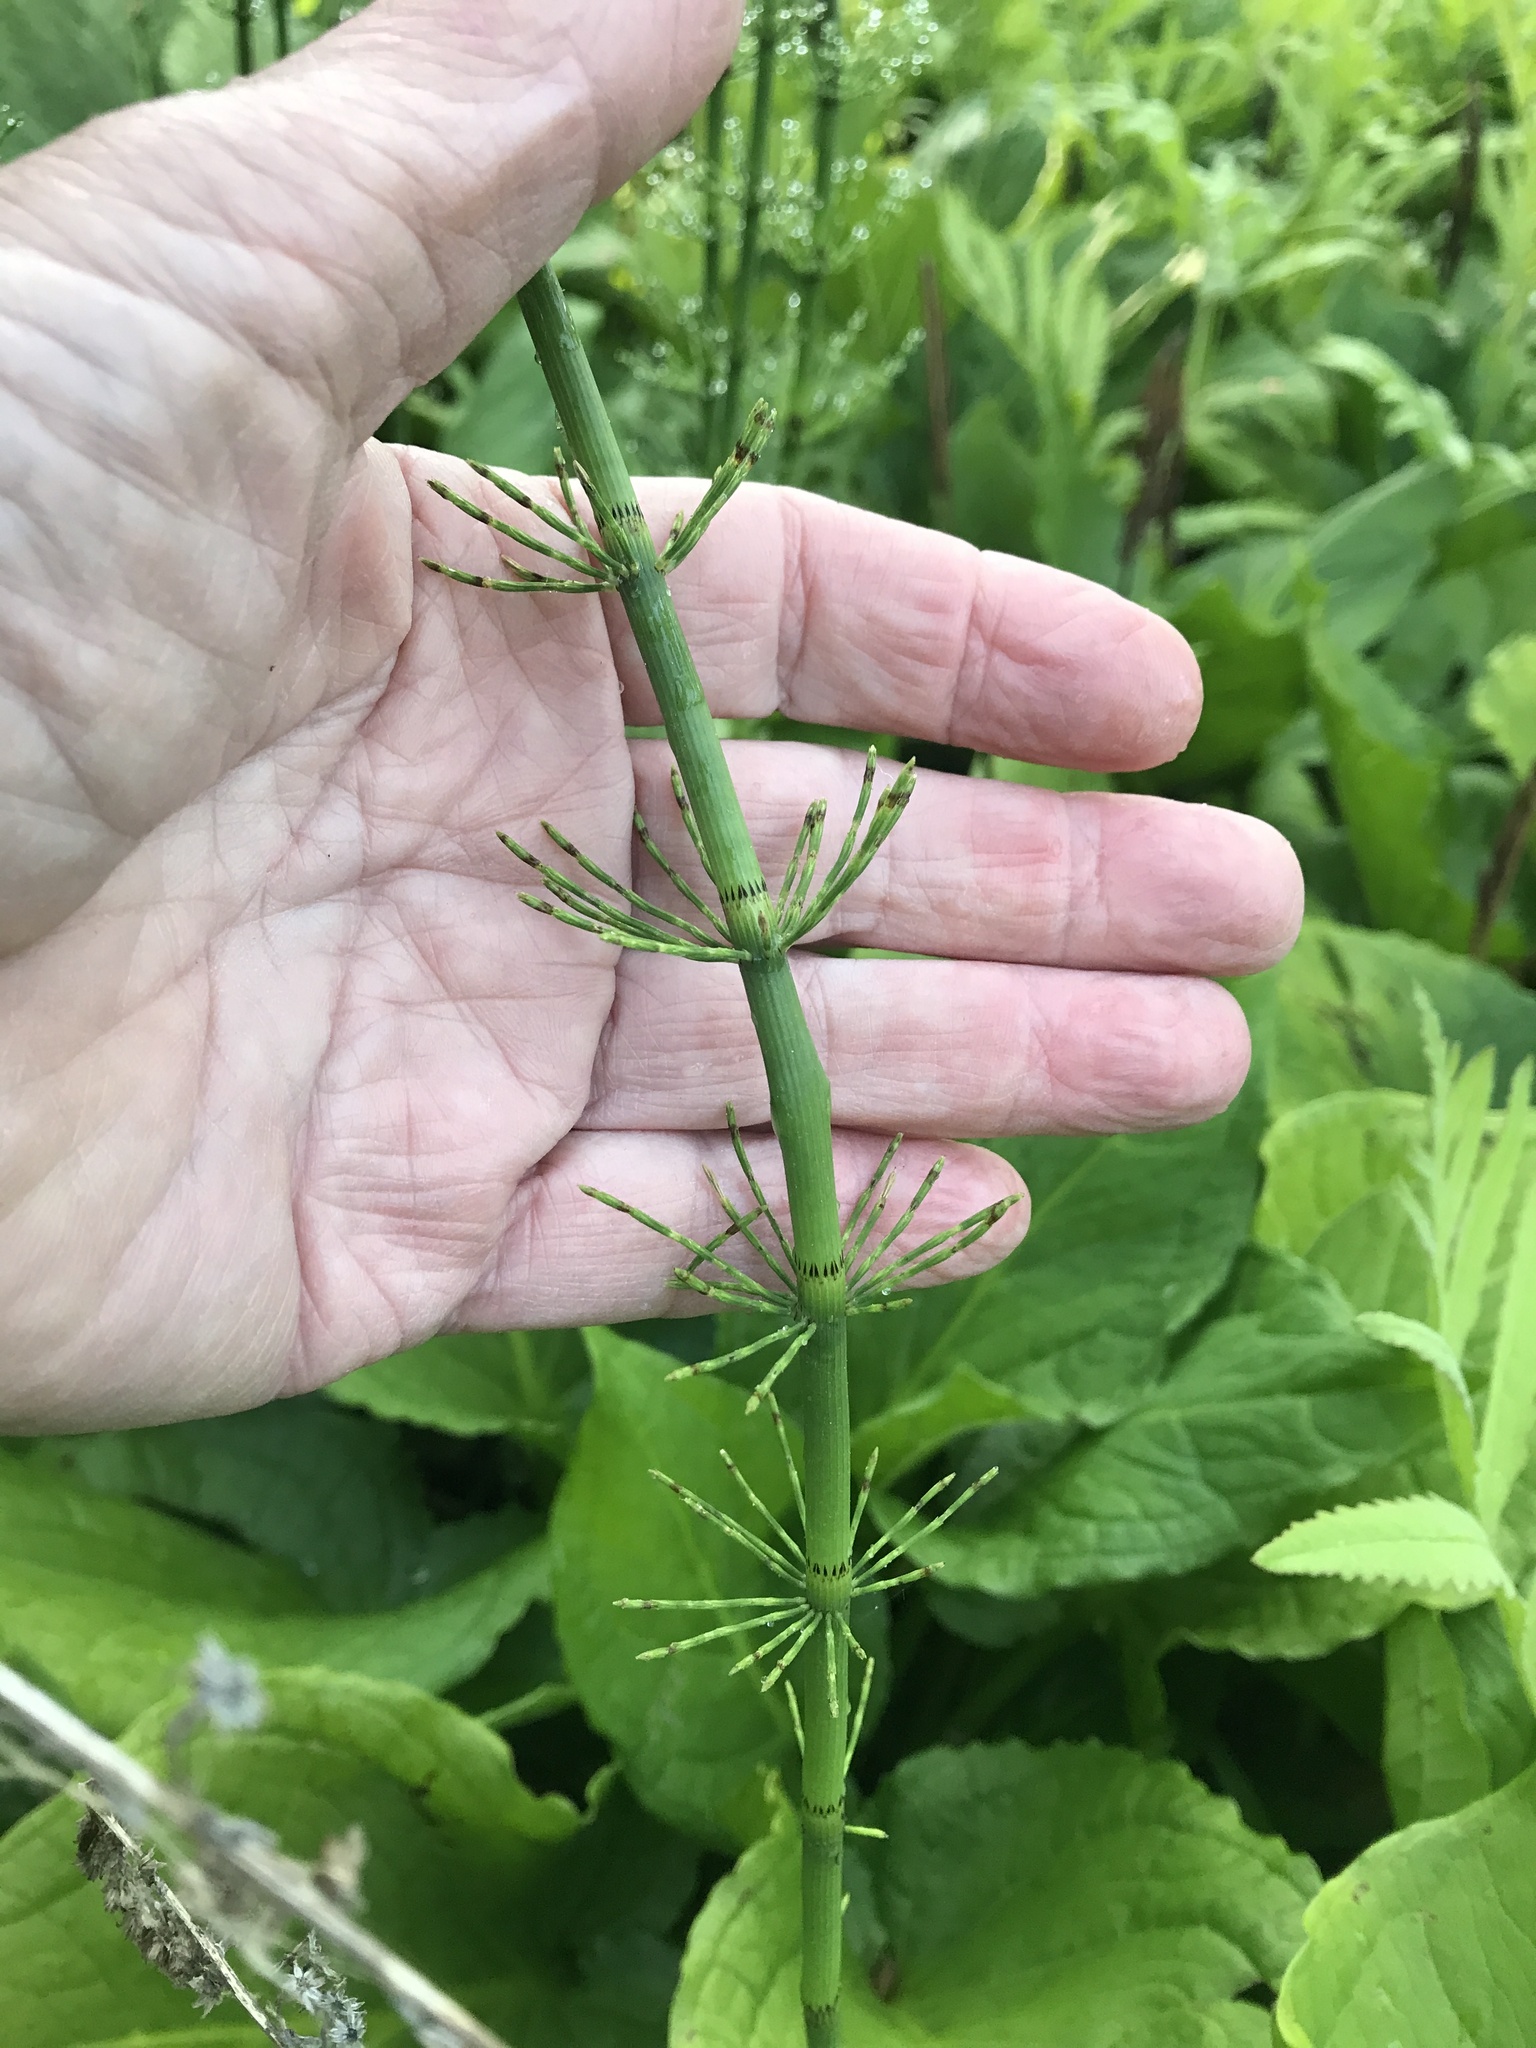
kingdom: Plantae
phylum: Tracheophyta
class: Polypodiopsida
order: Equisetales
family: Equisetaceae
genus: Equisetum
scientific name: Equisetum fluviatile
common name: Water horsetail
